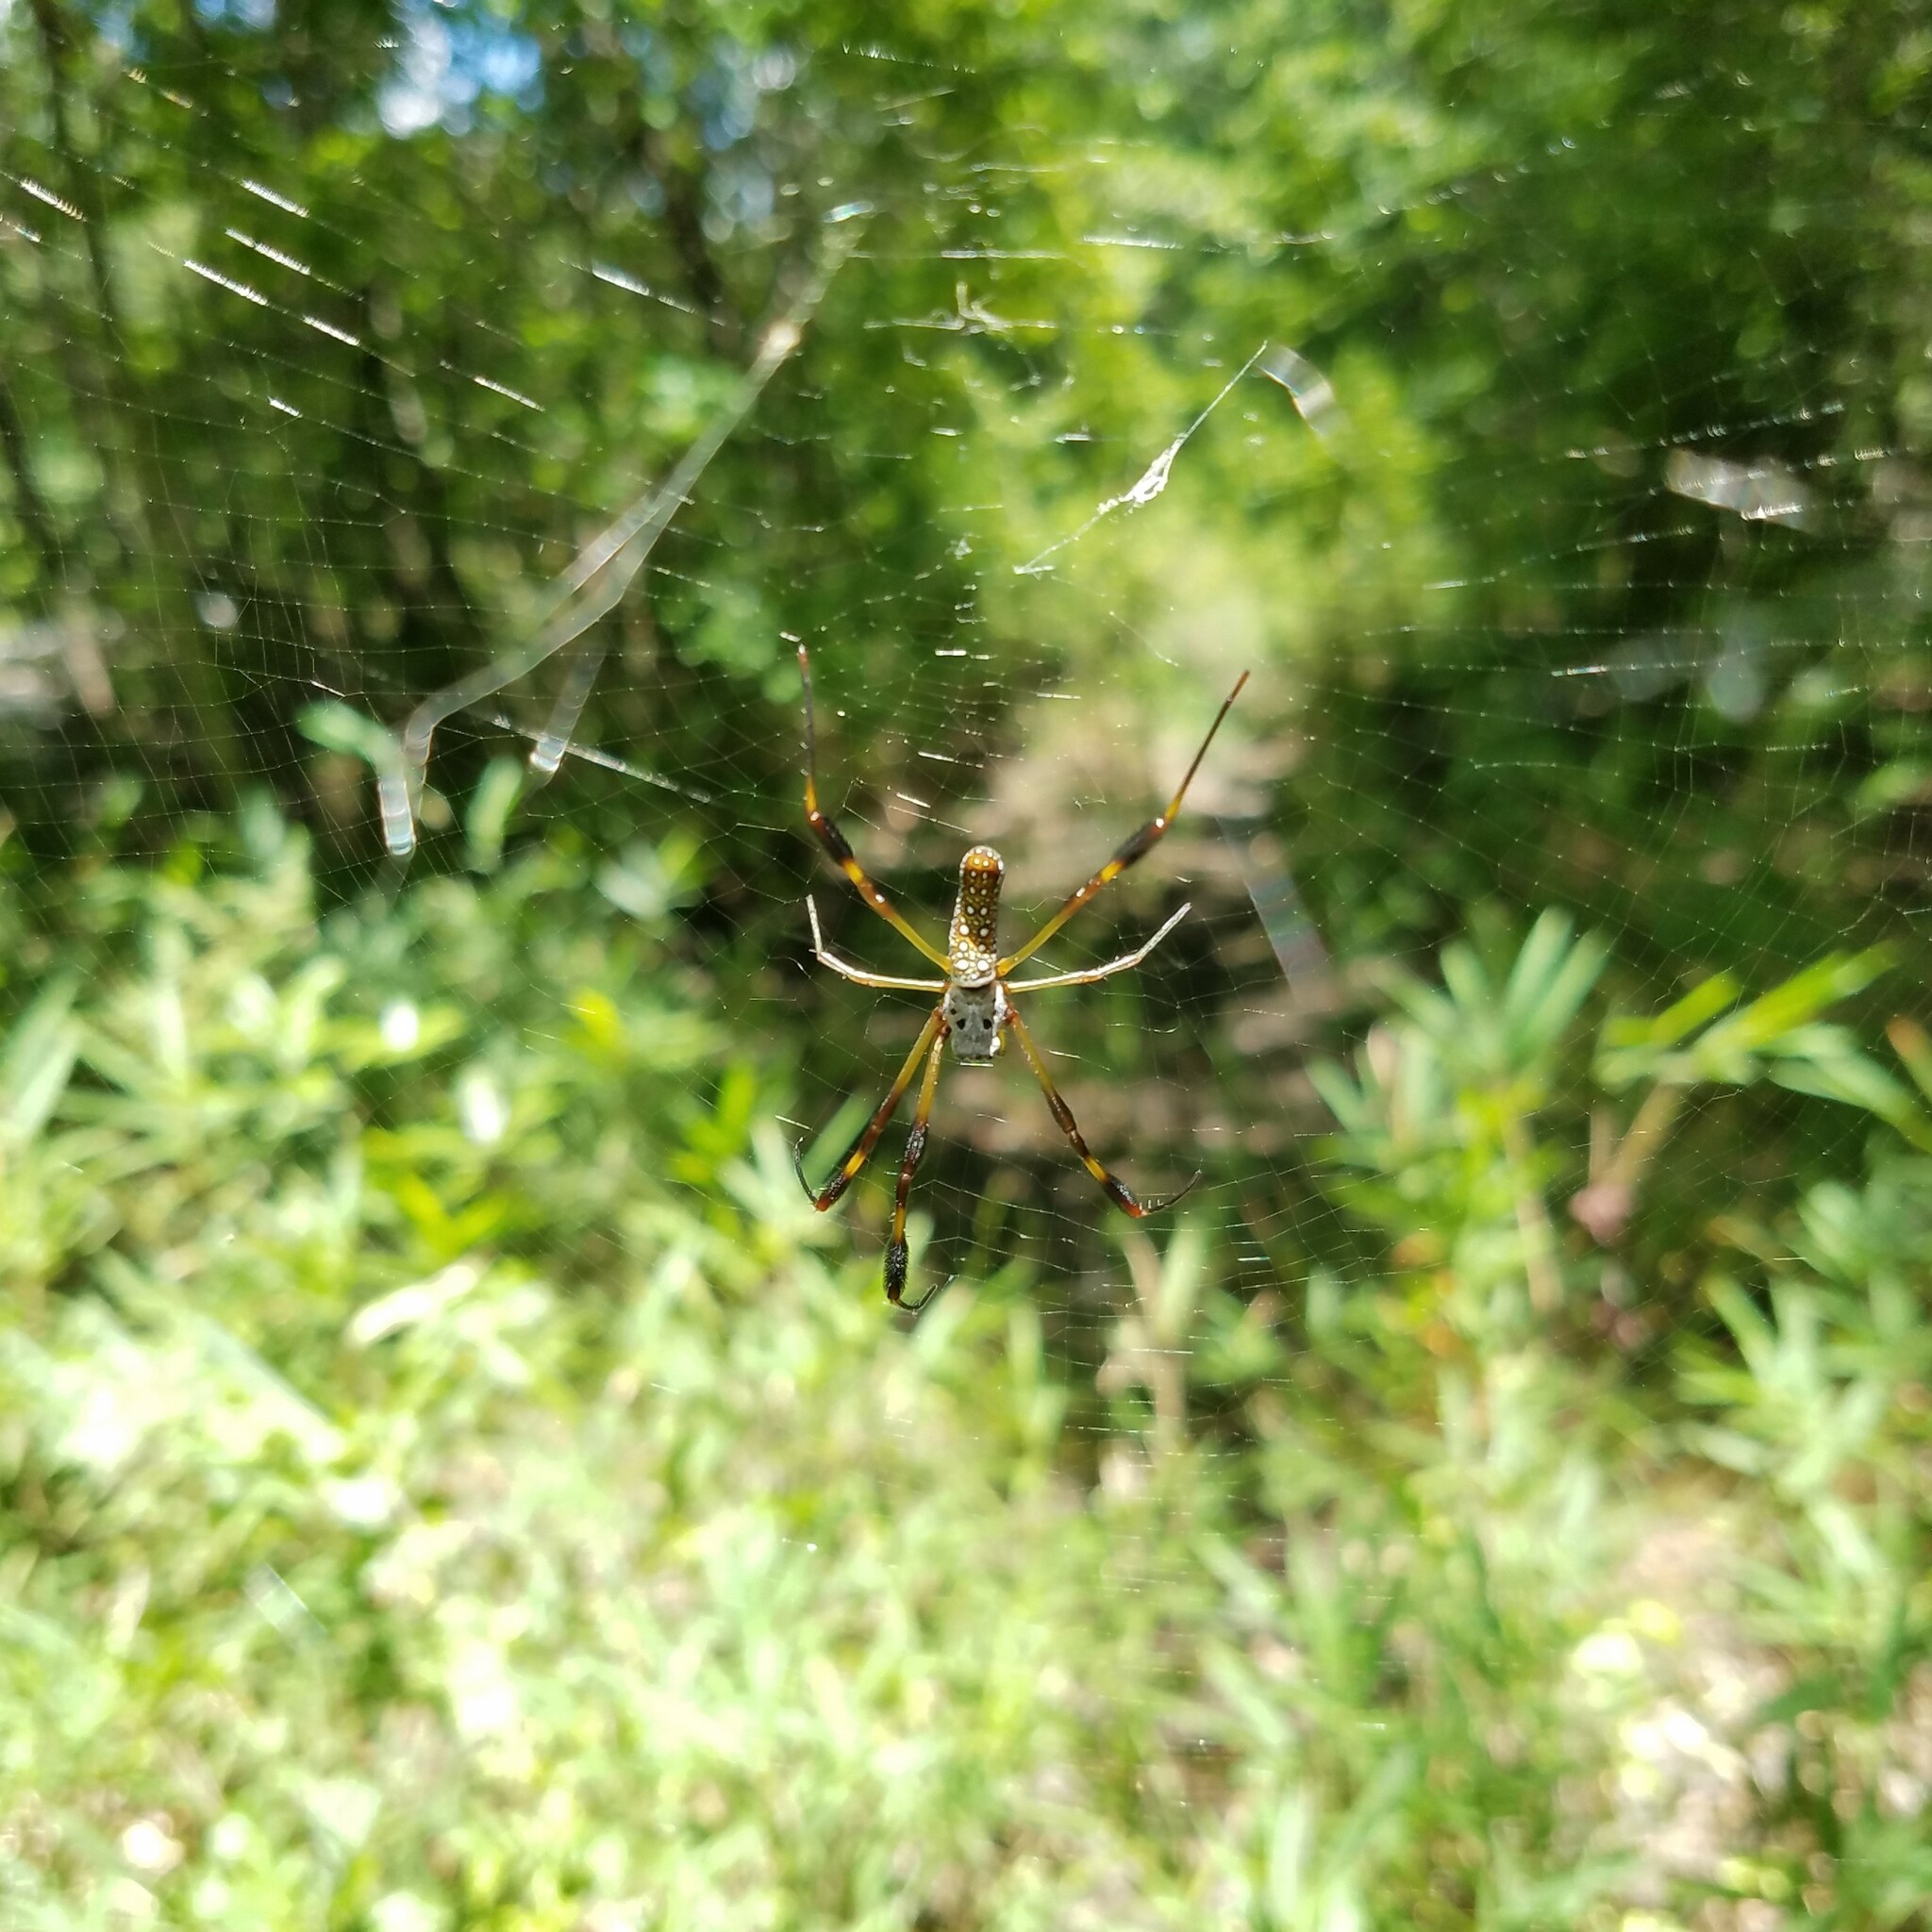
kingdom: Animalia
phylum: Arthropoda
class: Arachnida
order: Araneae
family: Araneidae
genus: Trichonephila
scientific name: Trichonephila clavipes
